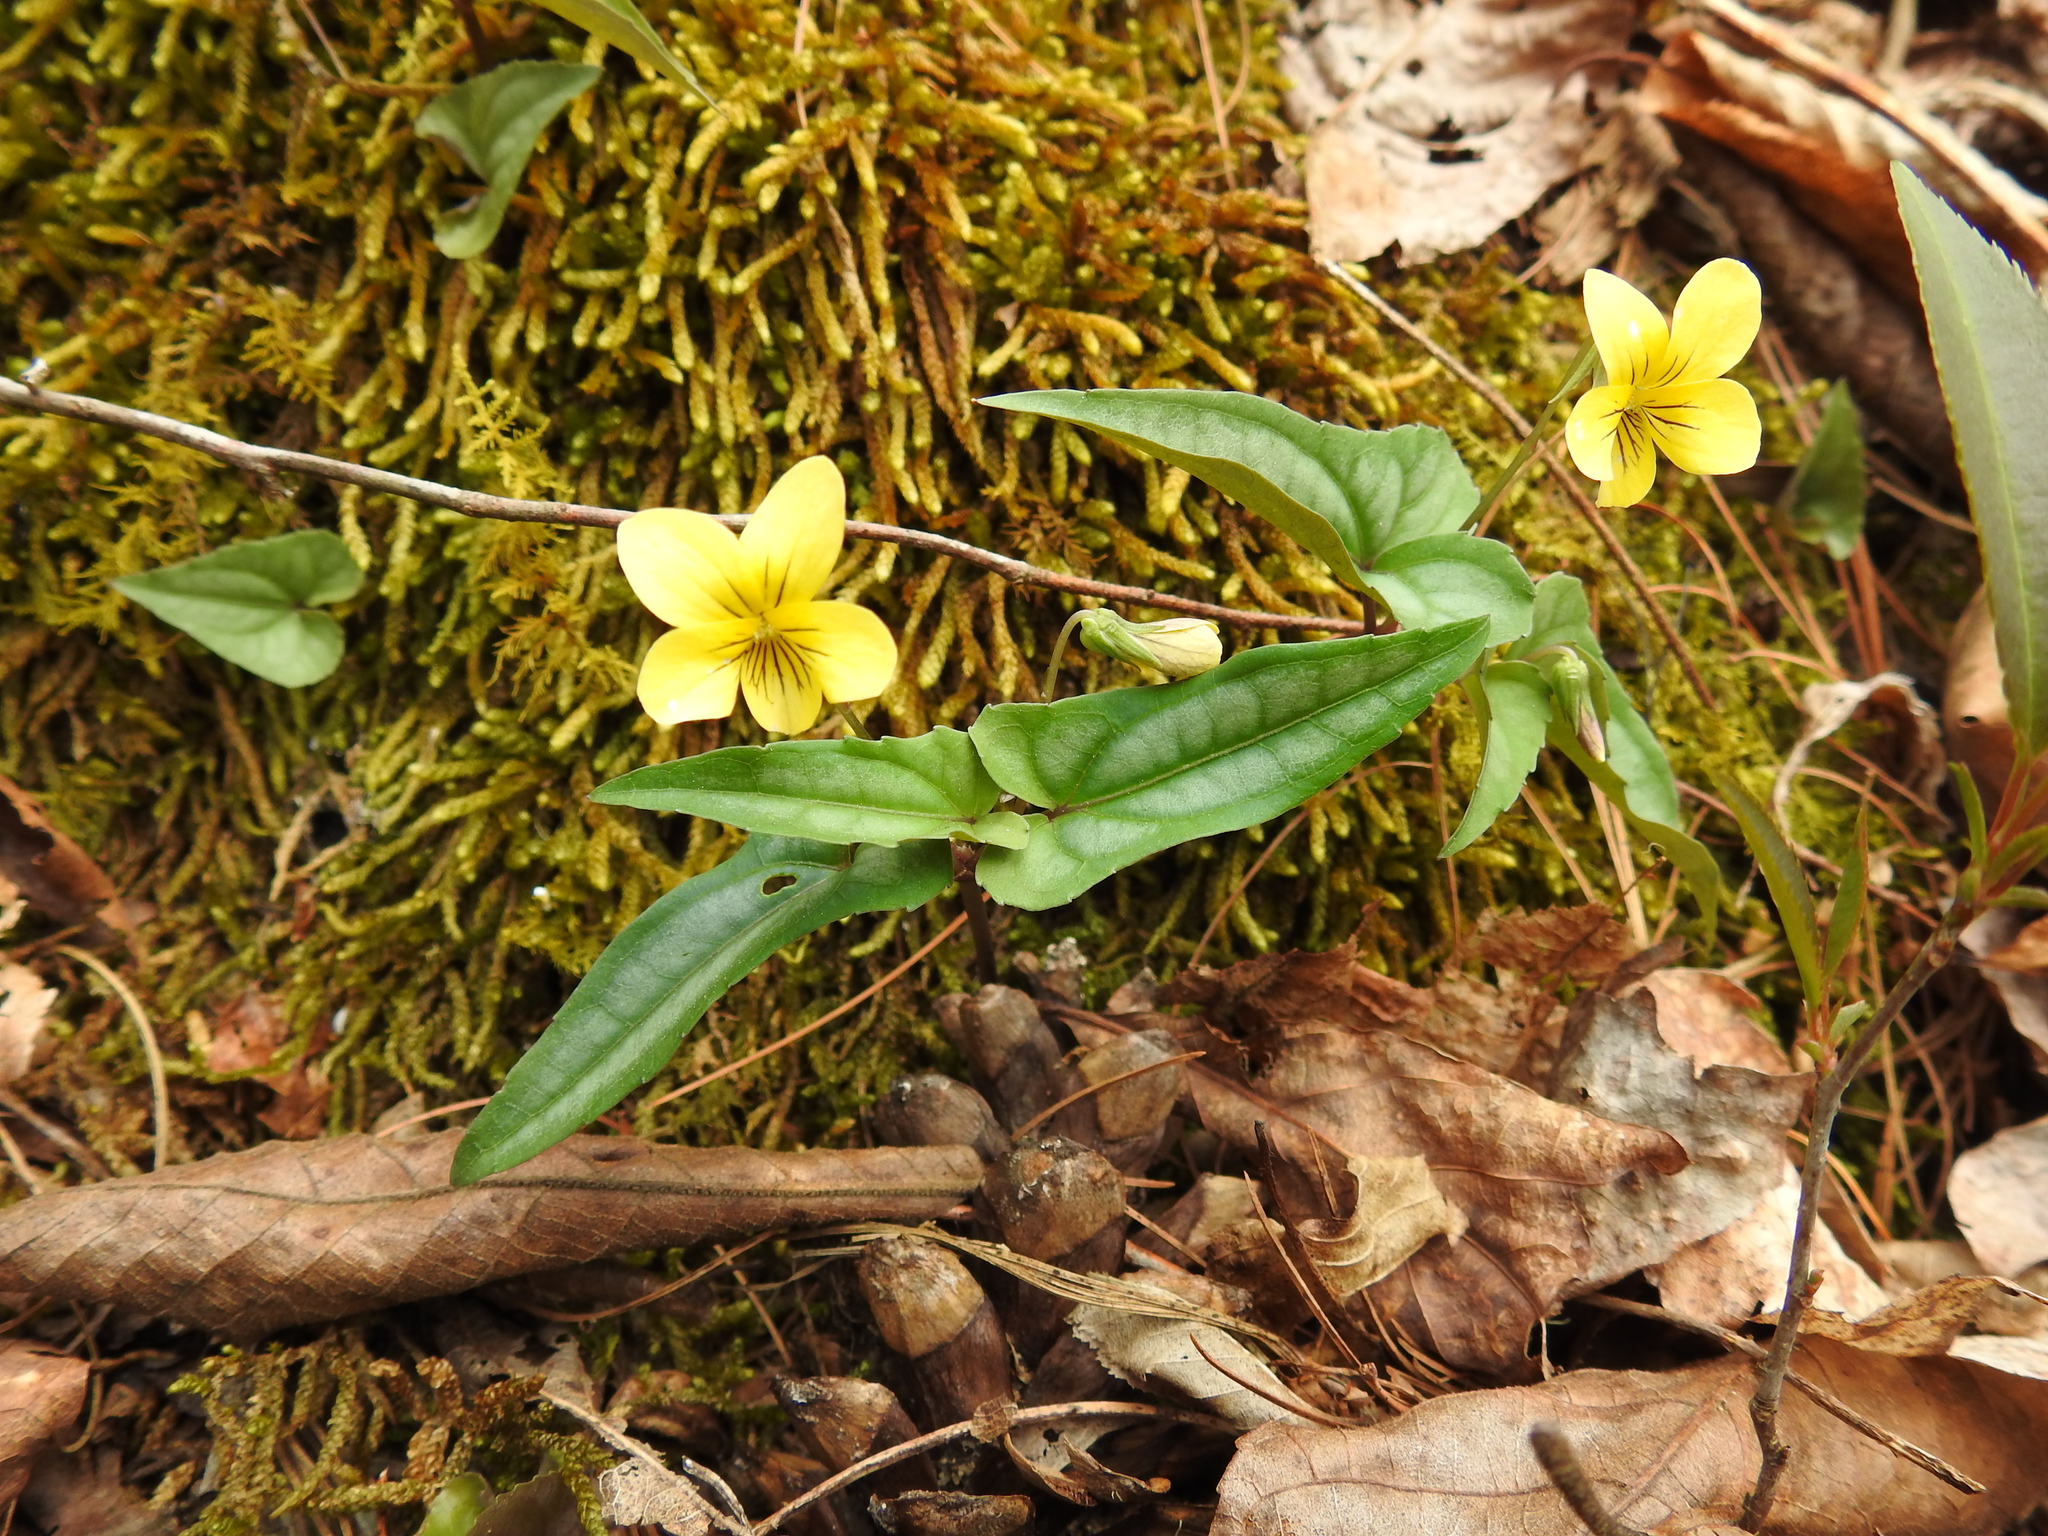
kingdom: Plantae
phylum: Tracheophyta
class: Magnoliopsida
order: Malpighiales
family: Violaceae
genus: Viola
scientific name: Viola hastata
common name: Spear-leaf violet
